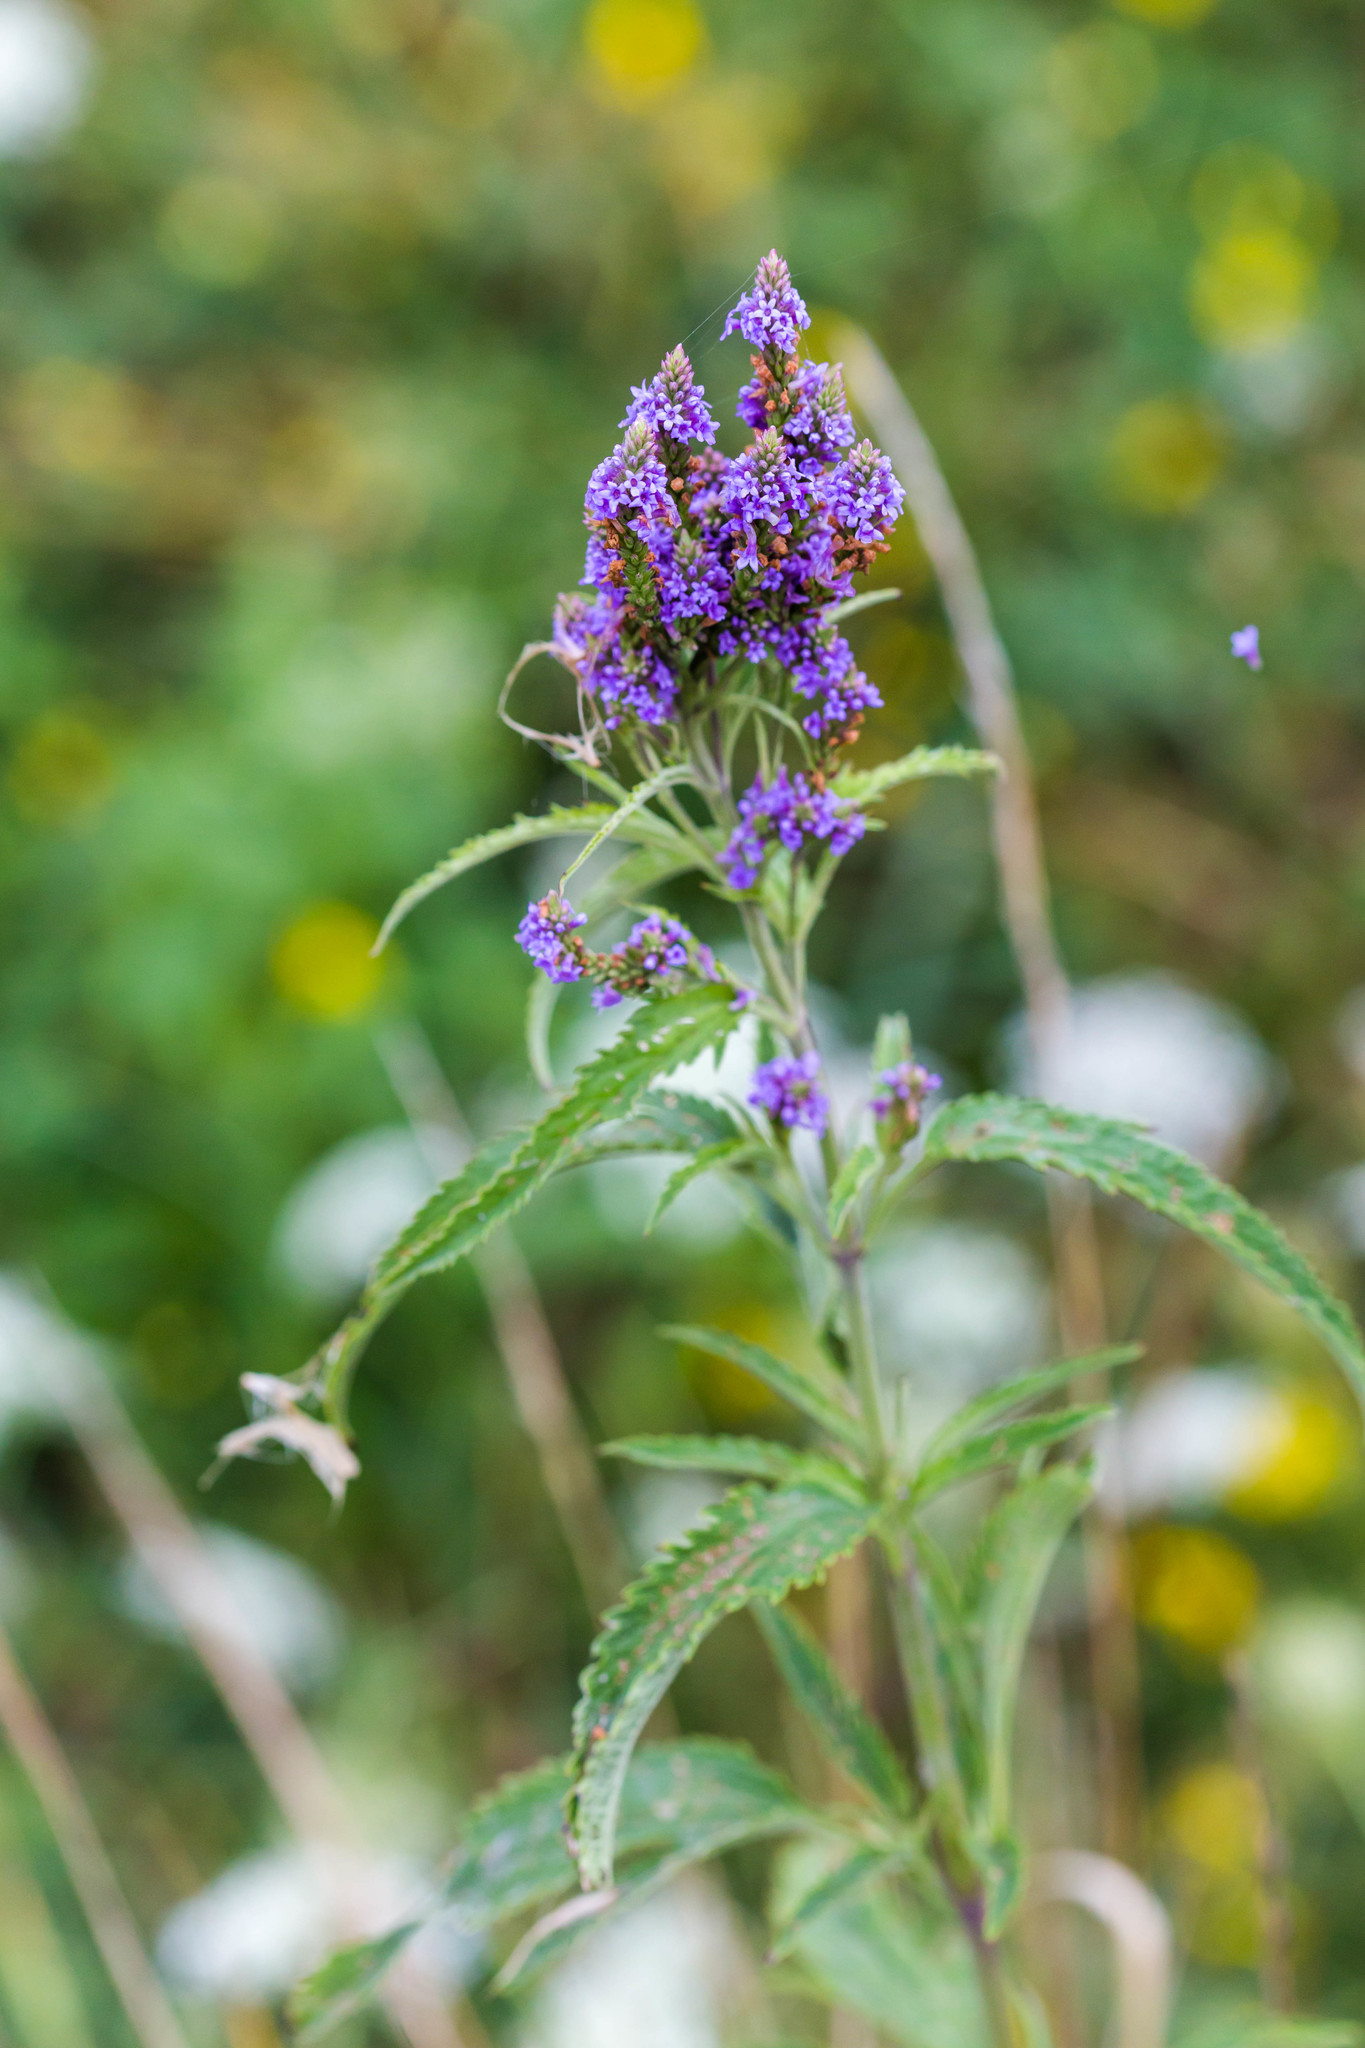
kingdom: Plantae
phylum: Tracheophyta
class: Magnoliopsida
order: Lamiales
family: Verbenaceae
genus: Verbena
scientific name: Verbena hastata
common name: American blue vervain
